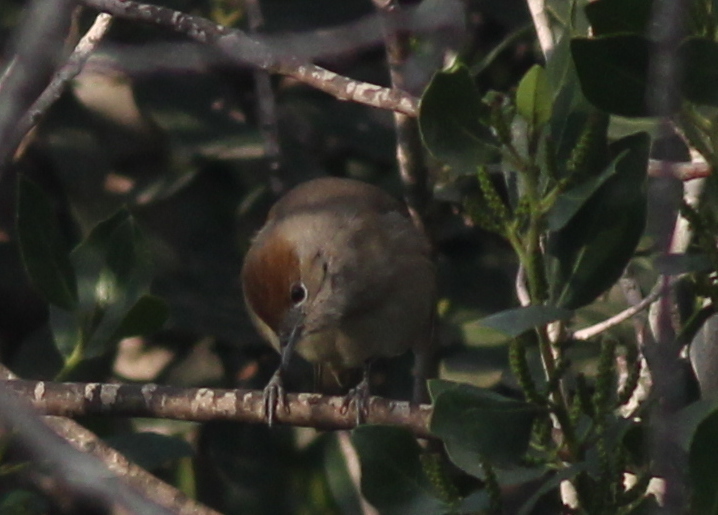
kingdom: Animalia
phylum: Chordata
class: Aves
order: Passeriformes
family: Sylviidae
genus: Sylvia
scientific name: Sylvia atricapilla
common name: Eurasian blackcap
